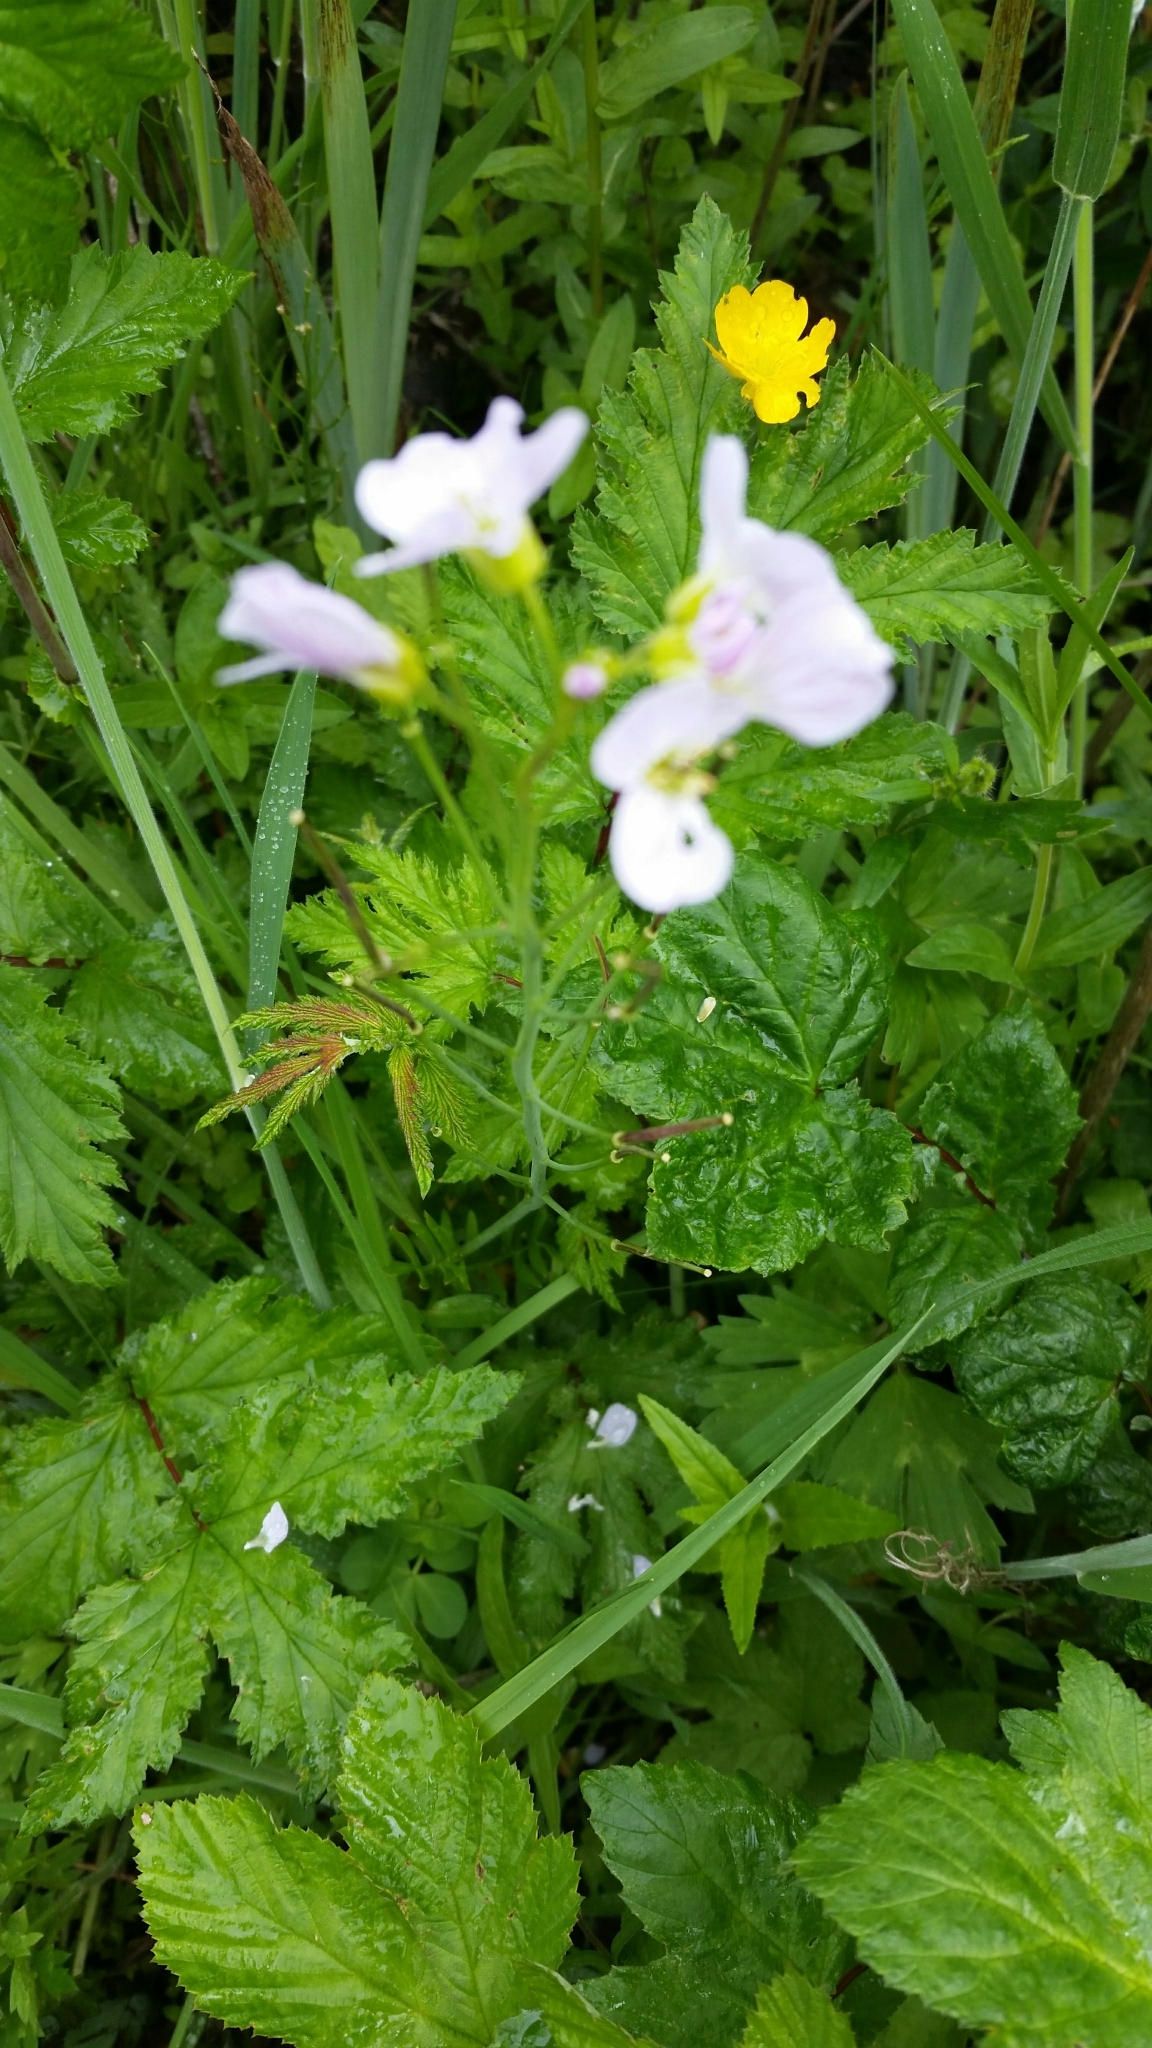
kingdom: Plantae
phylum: Tracheophyta
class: Magnoliopsida
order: Brassicales
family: Brassicaceae
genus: Cardamine
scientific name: Cardamine pratensis
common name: Cuckoo flower
